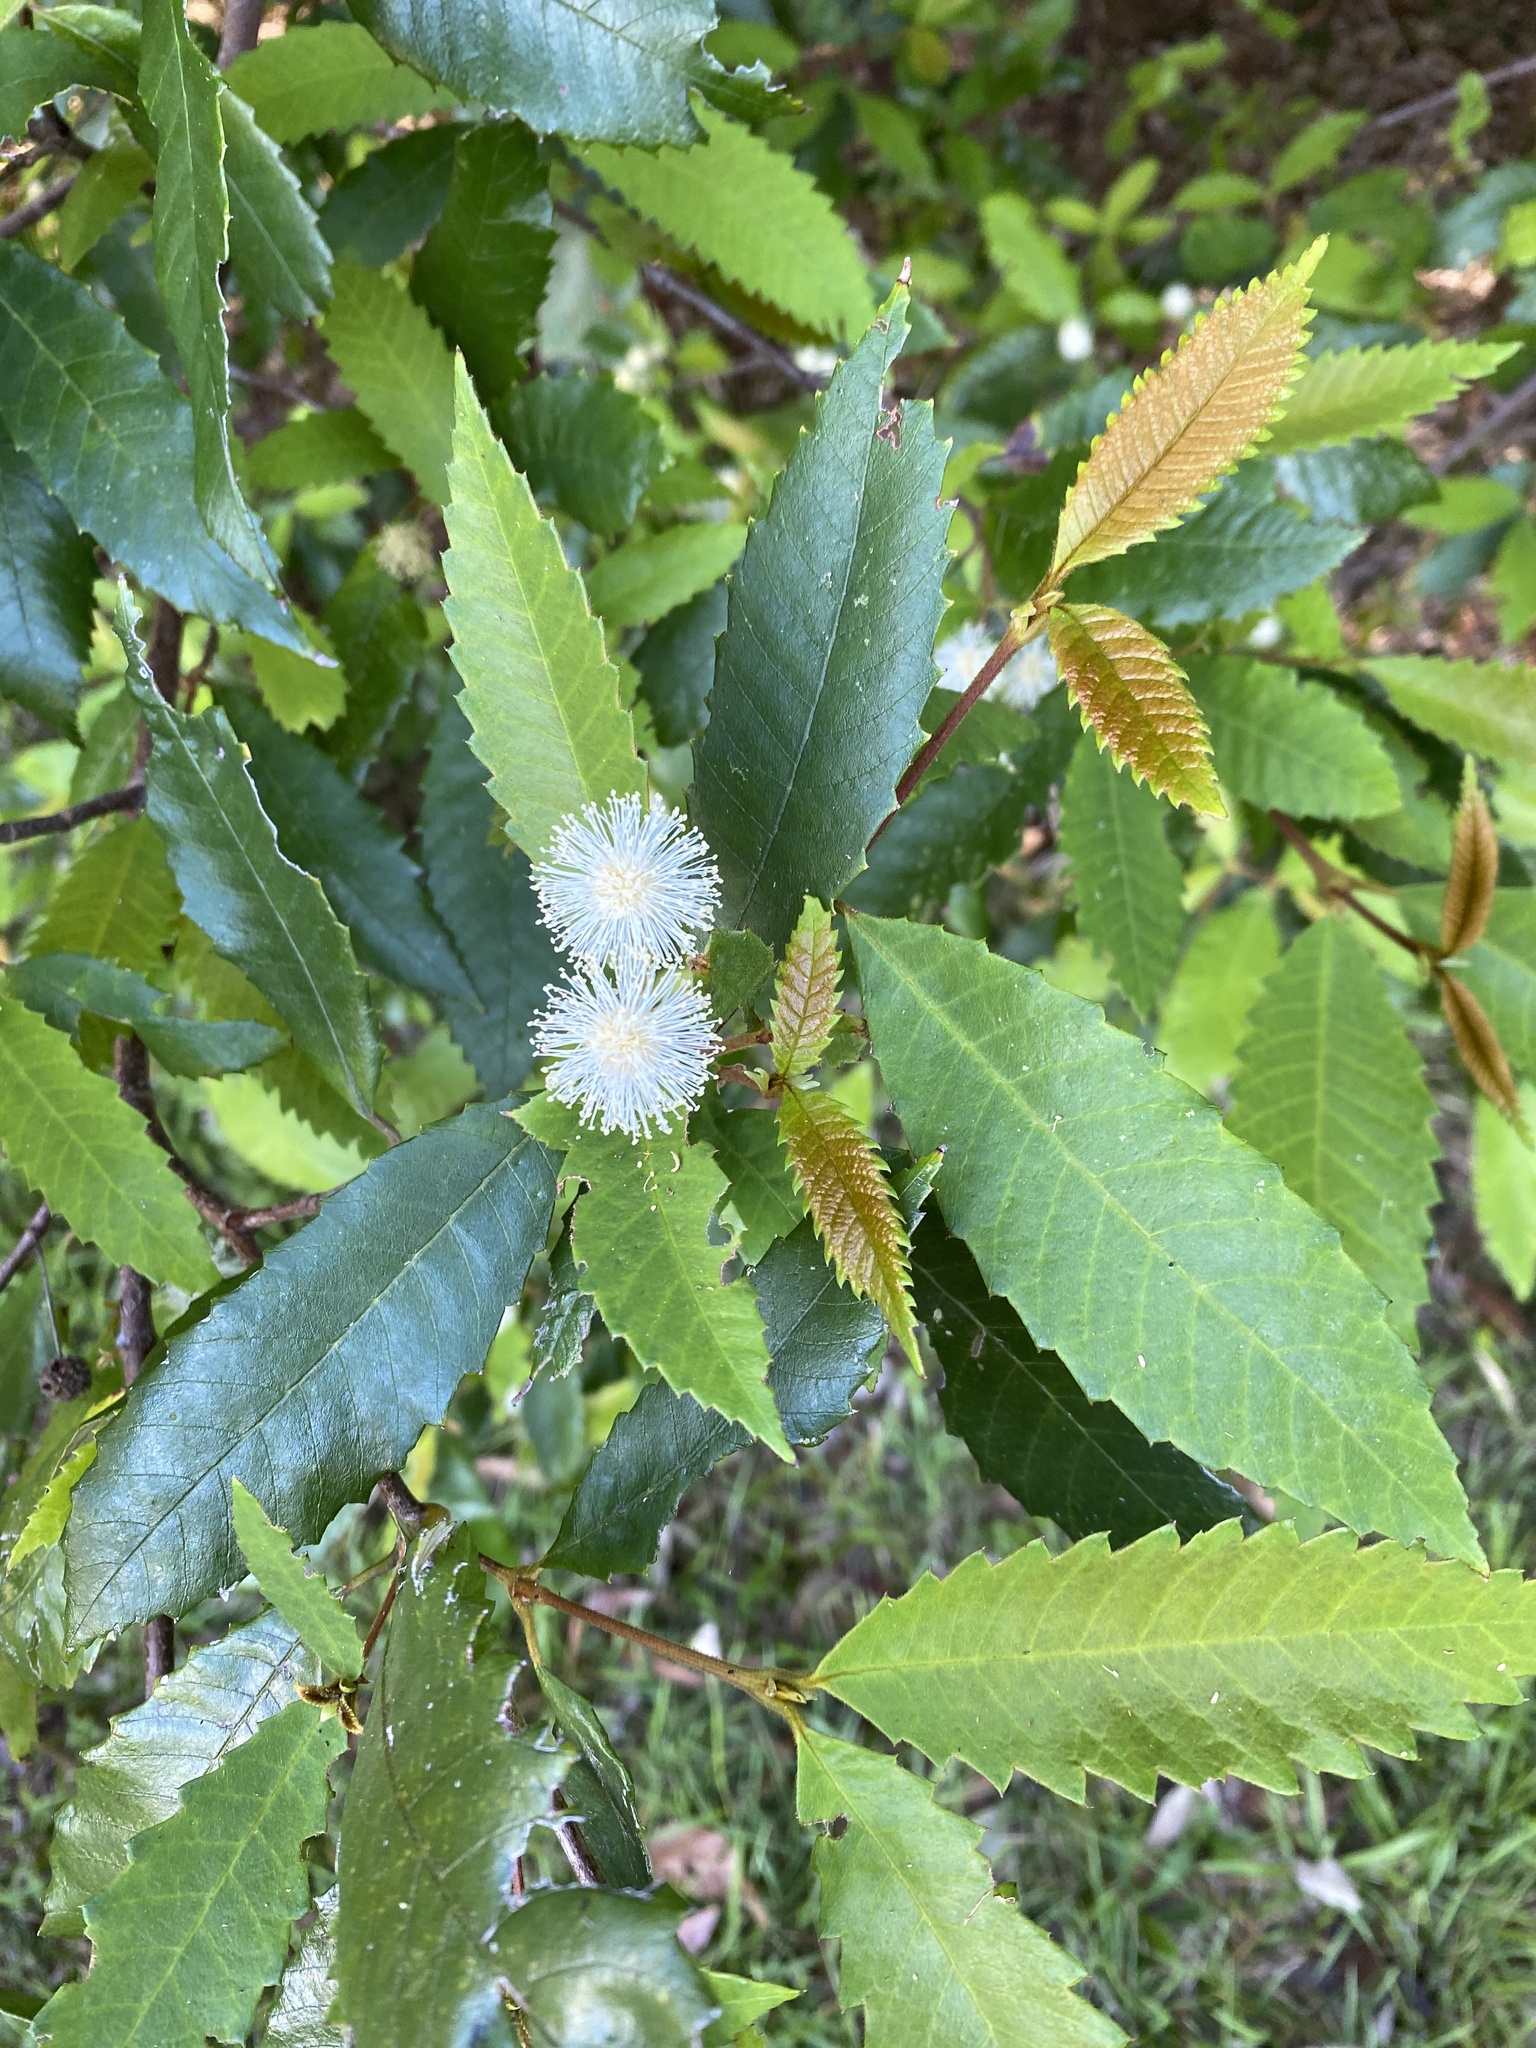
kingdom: Plantae
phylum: Tracheophyta
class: Magnoliopsida
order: Oxalidales
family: Cunoniaceae
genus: Callicoma
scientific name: Callicoma serratifolia
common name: Black wattle
